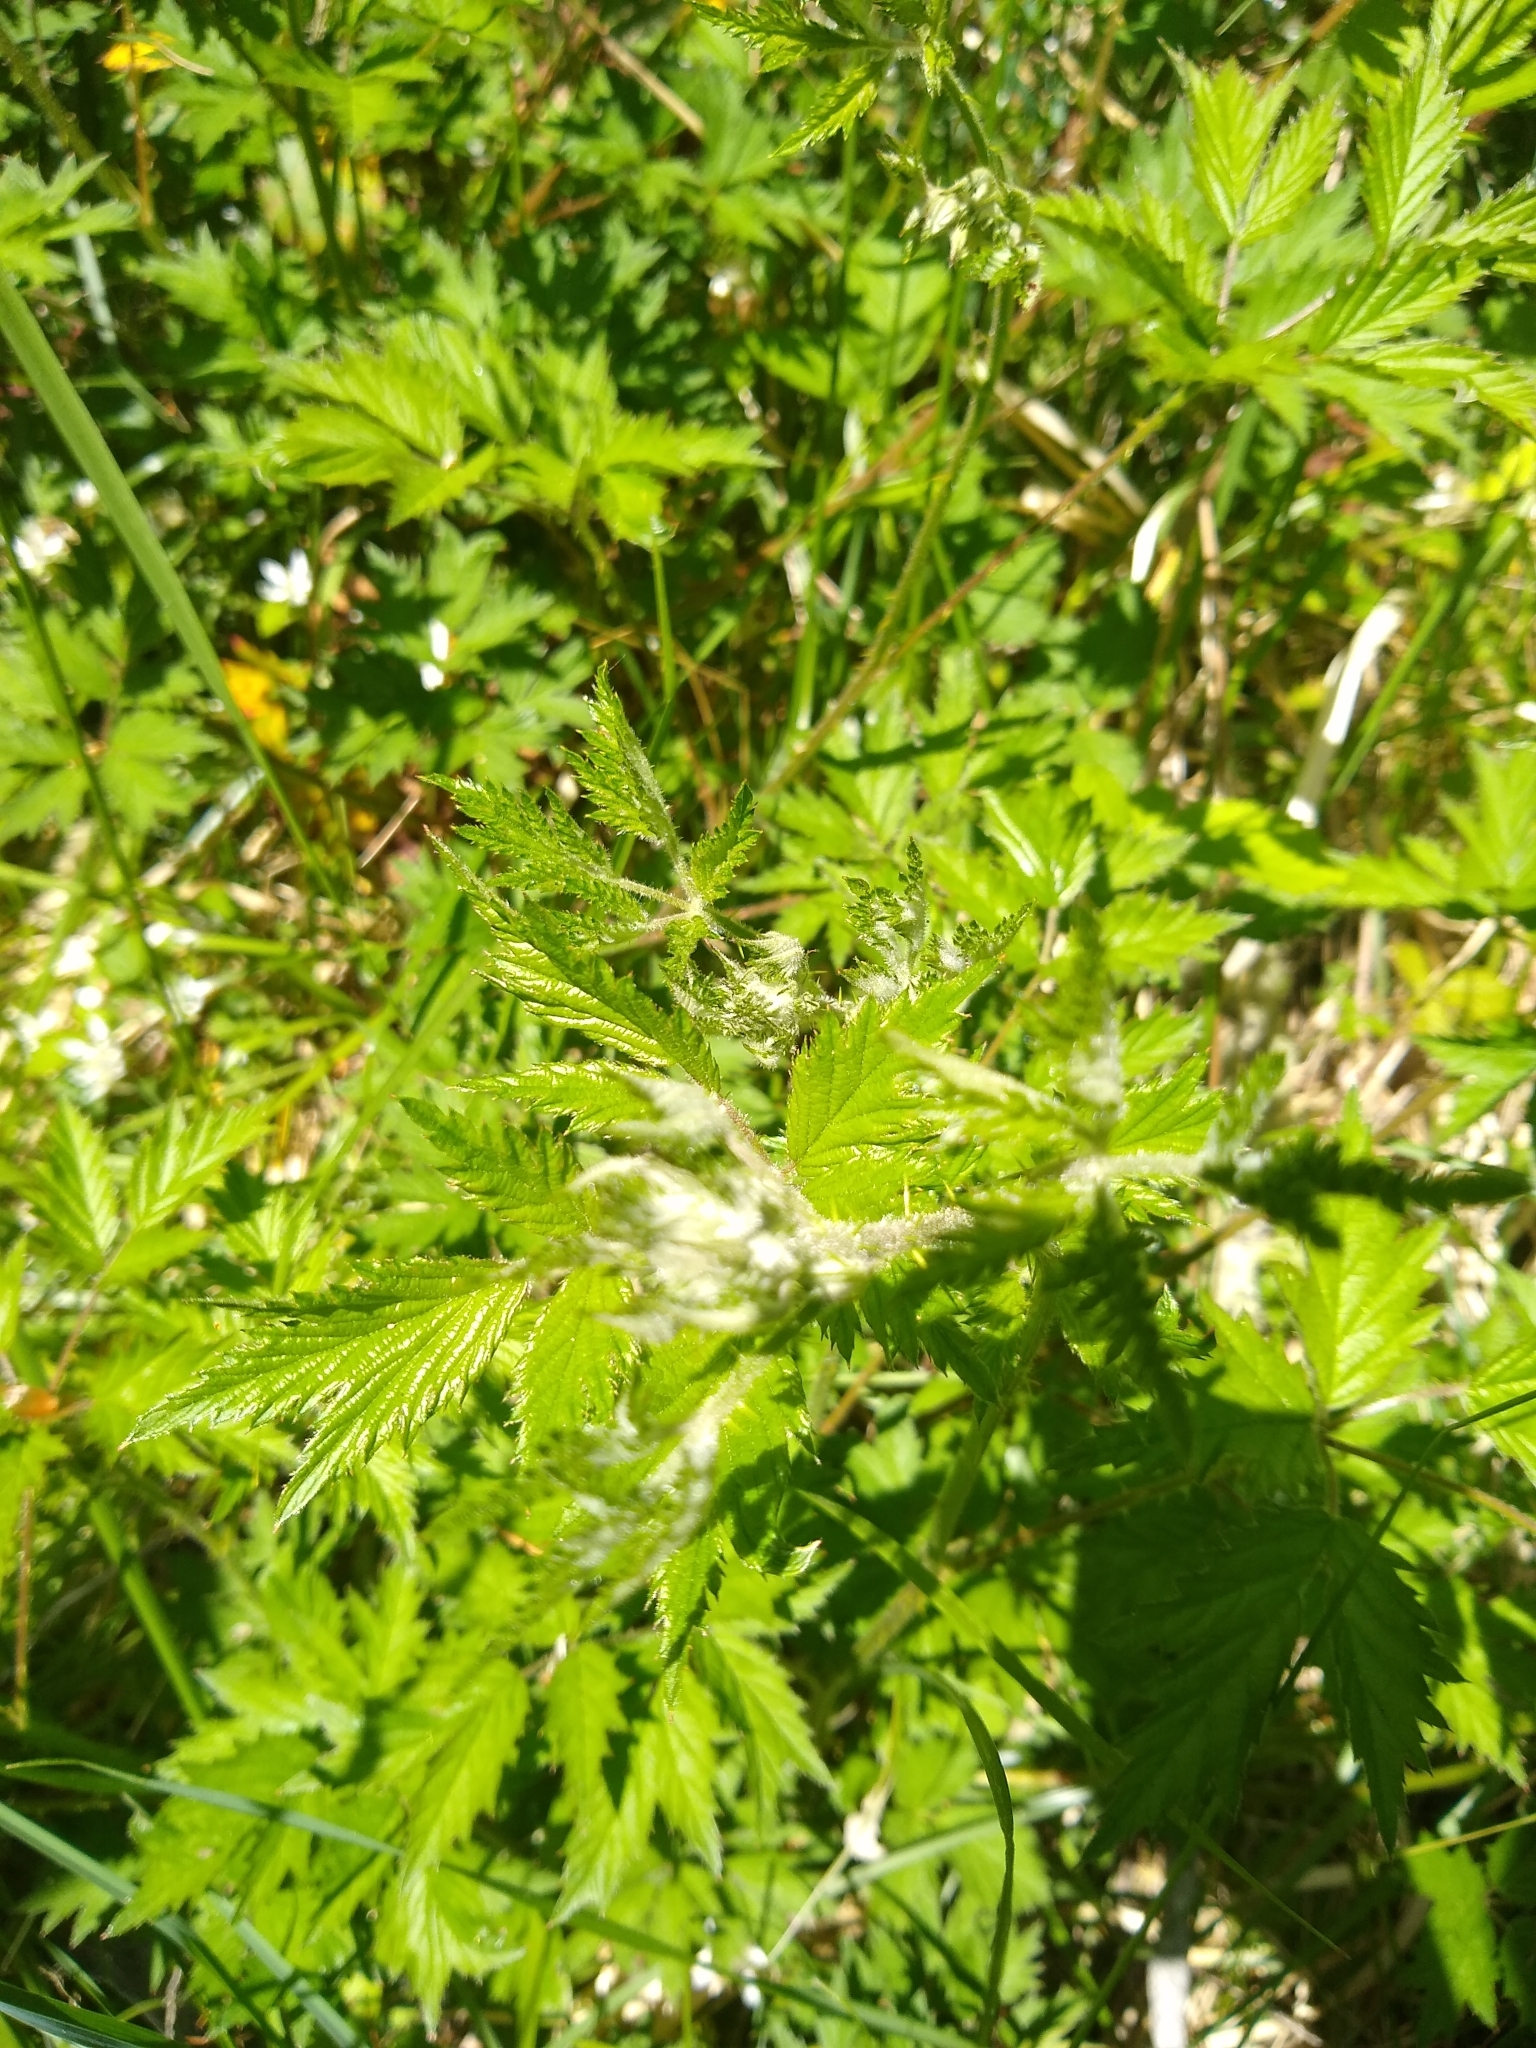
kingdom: Plantae
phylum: Tracheophyta
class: Magnoliopsida
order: Rosales
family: Rosaceae
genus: Rubus
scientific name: Rubus laciniatus
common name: Evergreen blackberry
